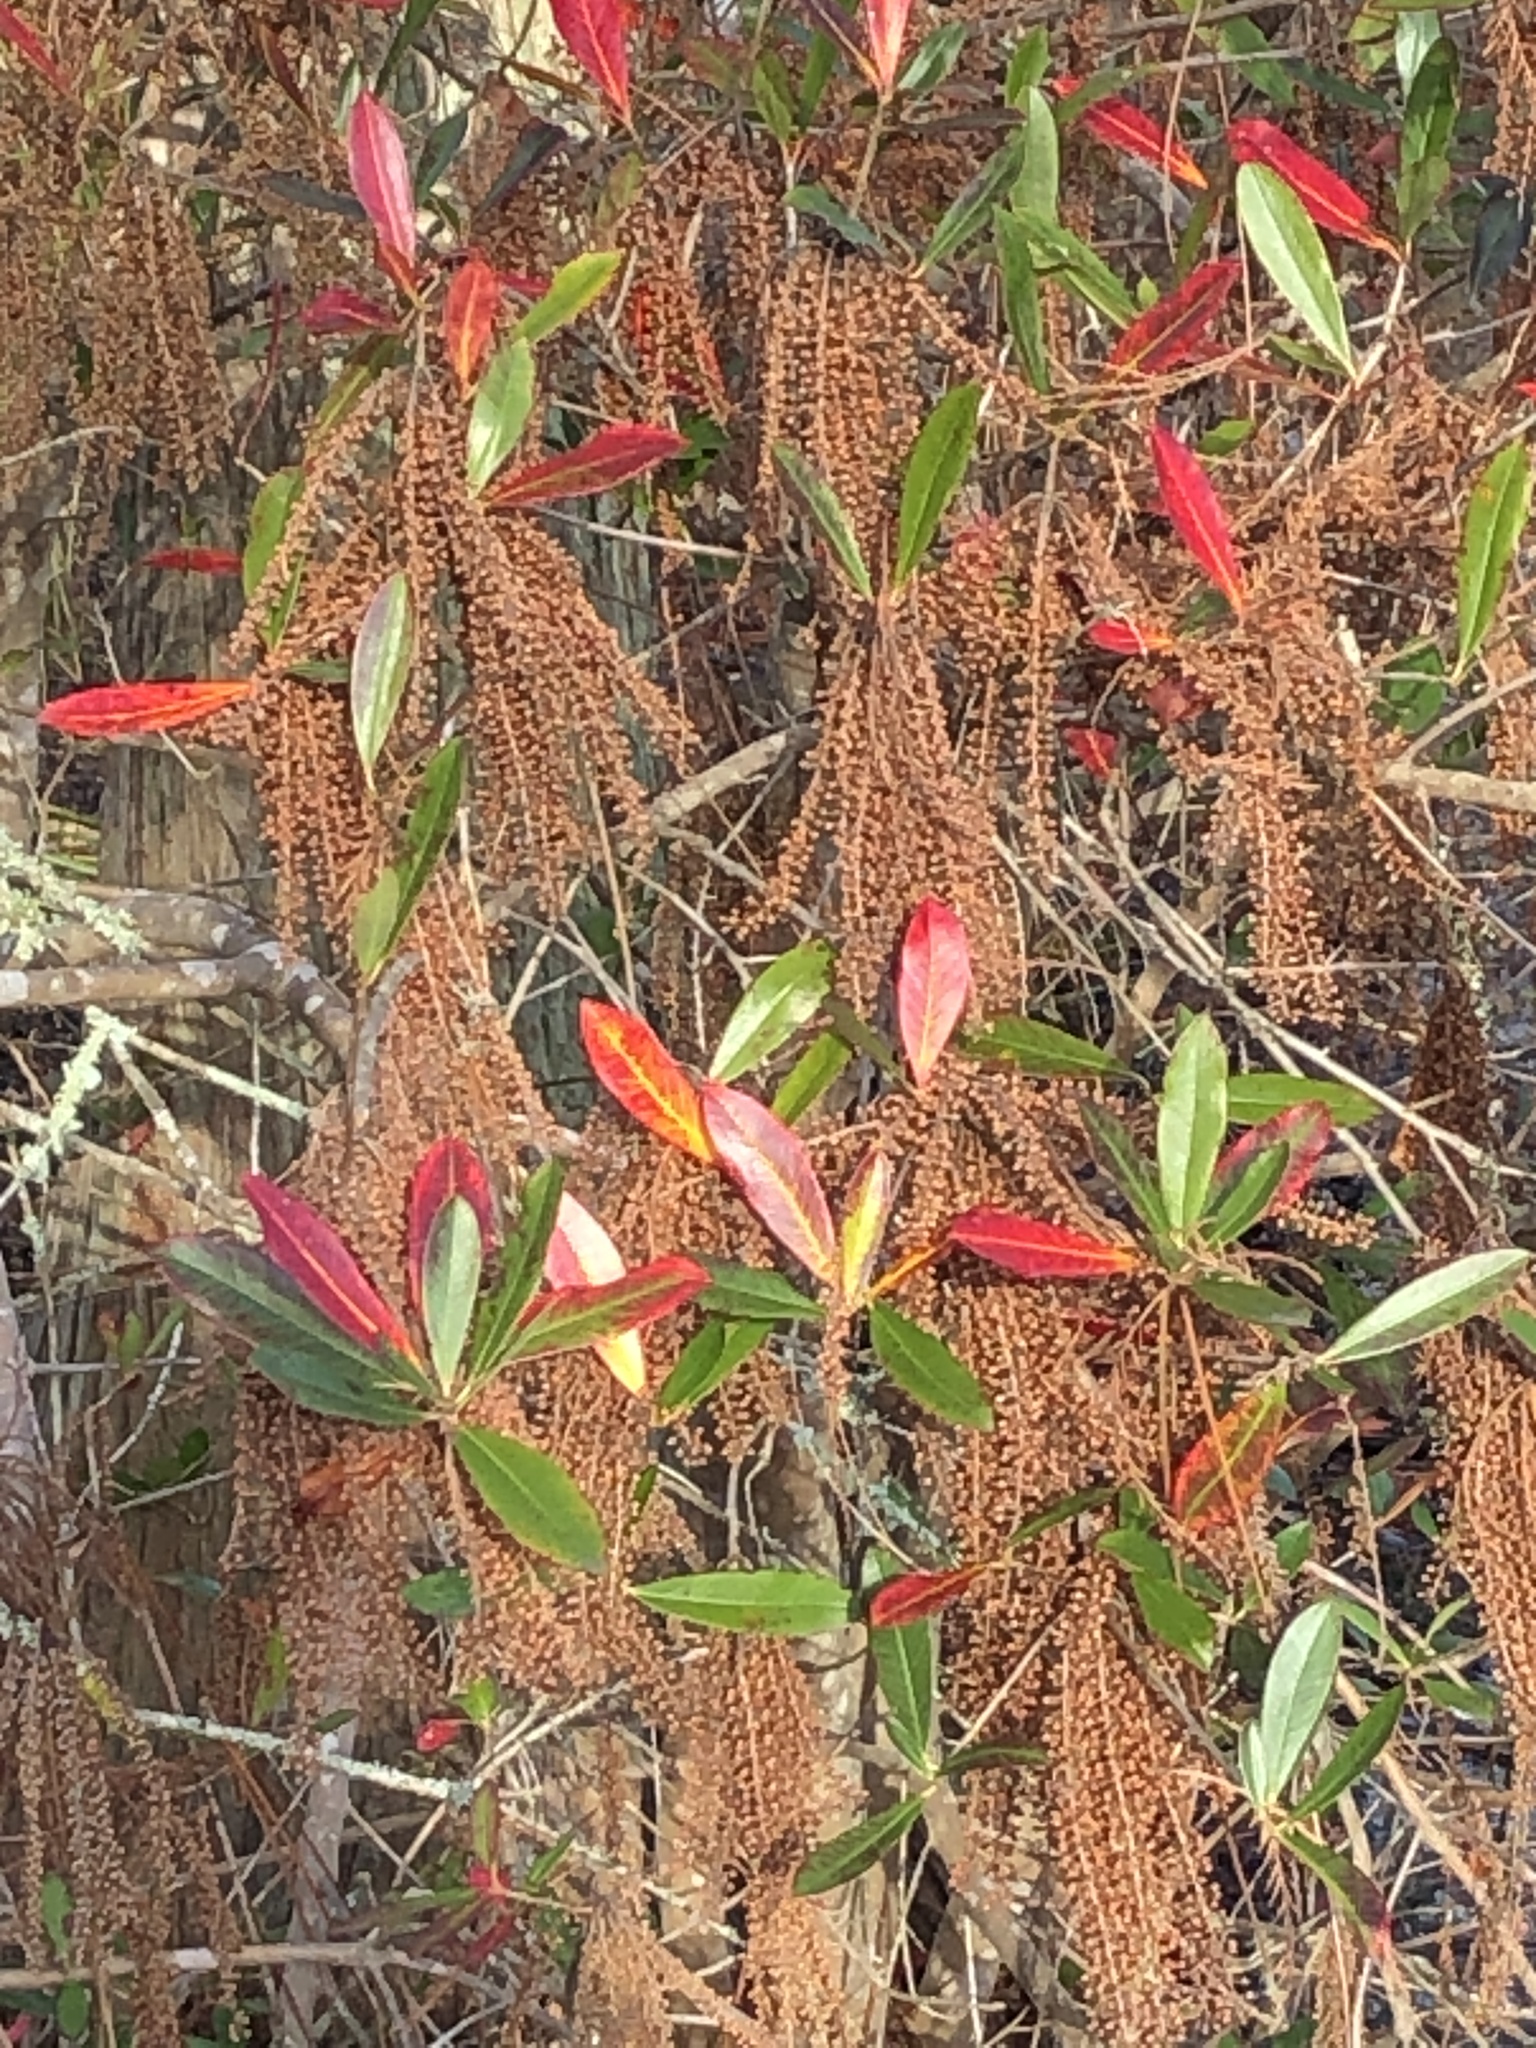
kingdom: Plantae
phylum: Tracheophyta
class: Magnoliopsida
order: Ericales
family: Cyrillaceae
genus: Cyrilla
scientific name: Cyrilla racemiflora
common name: Black titi
